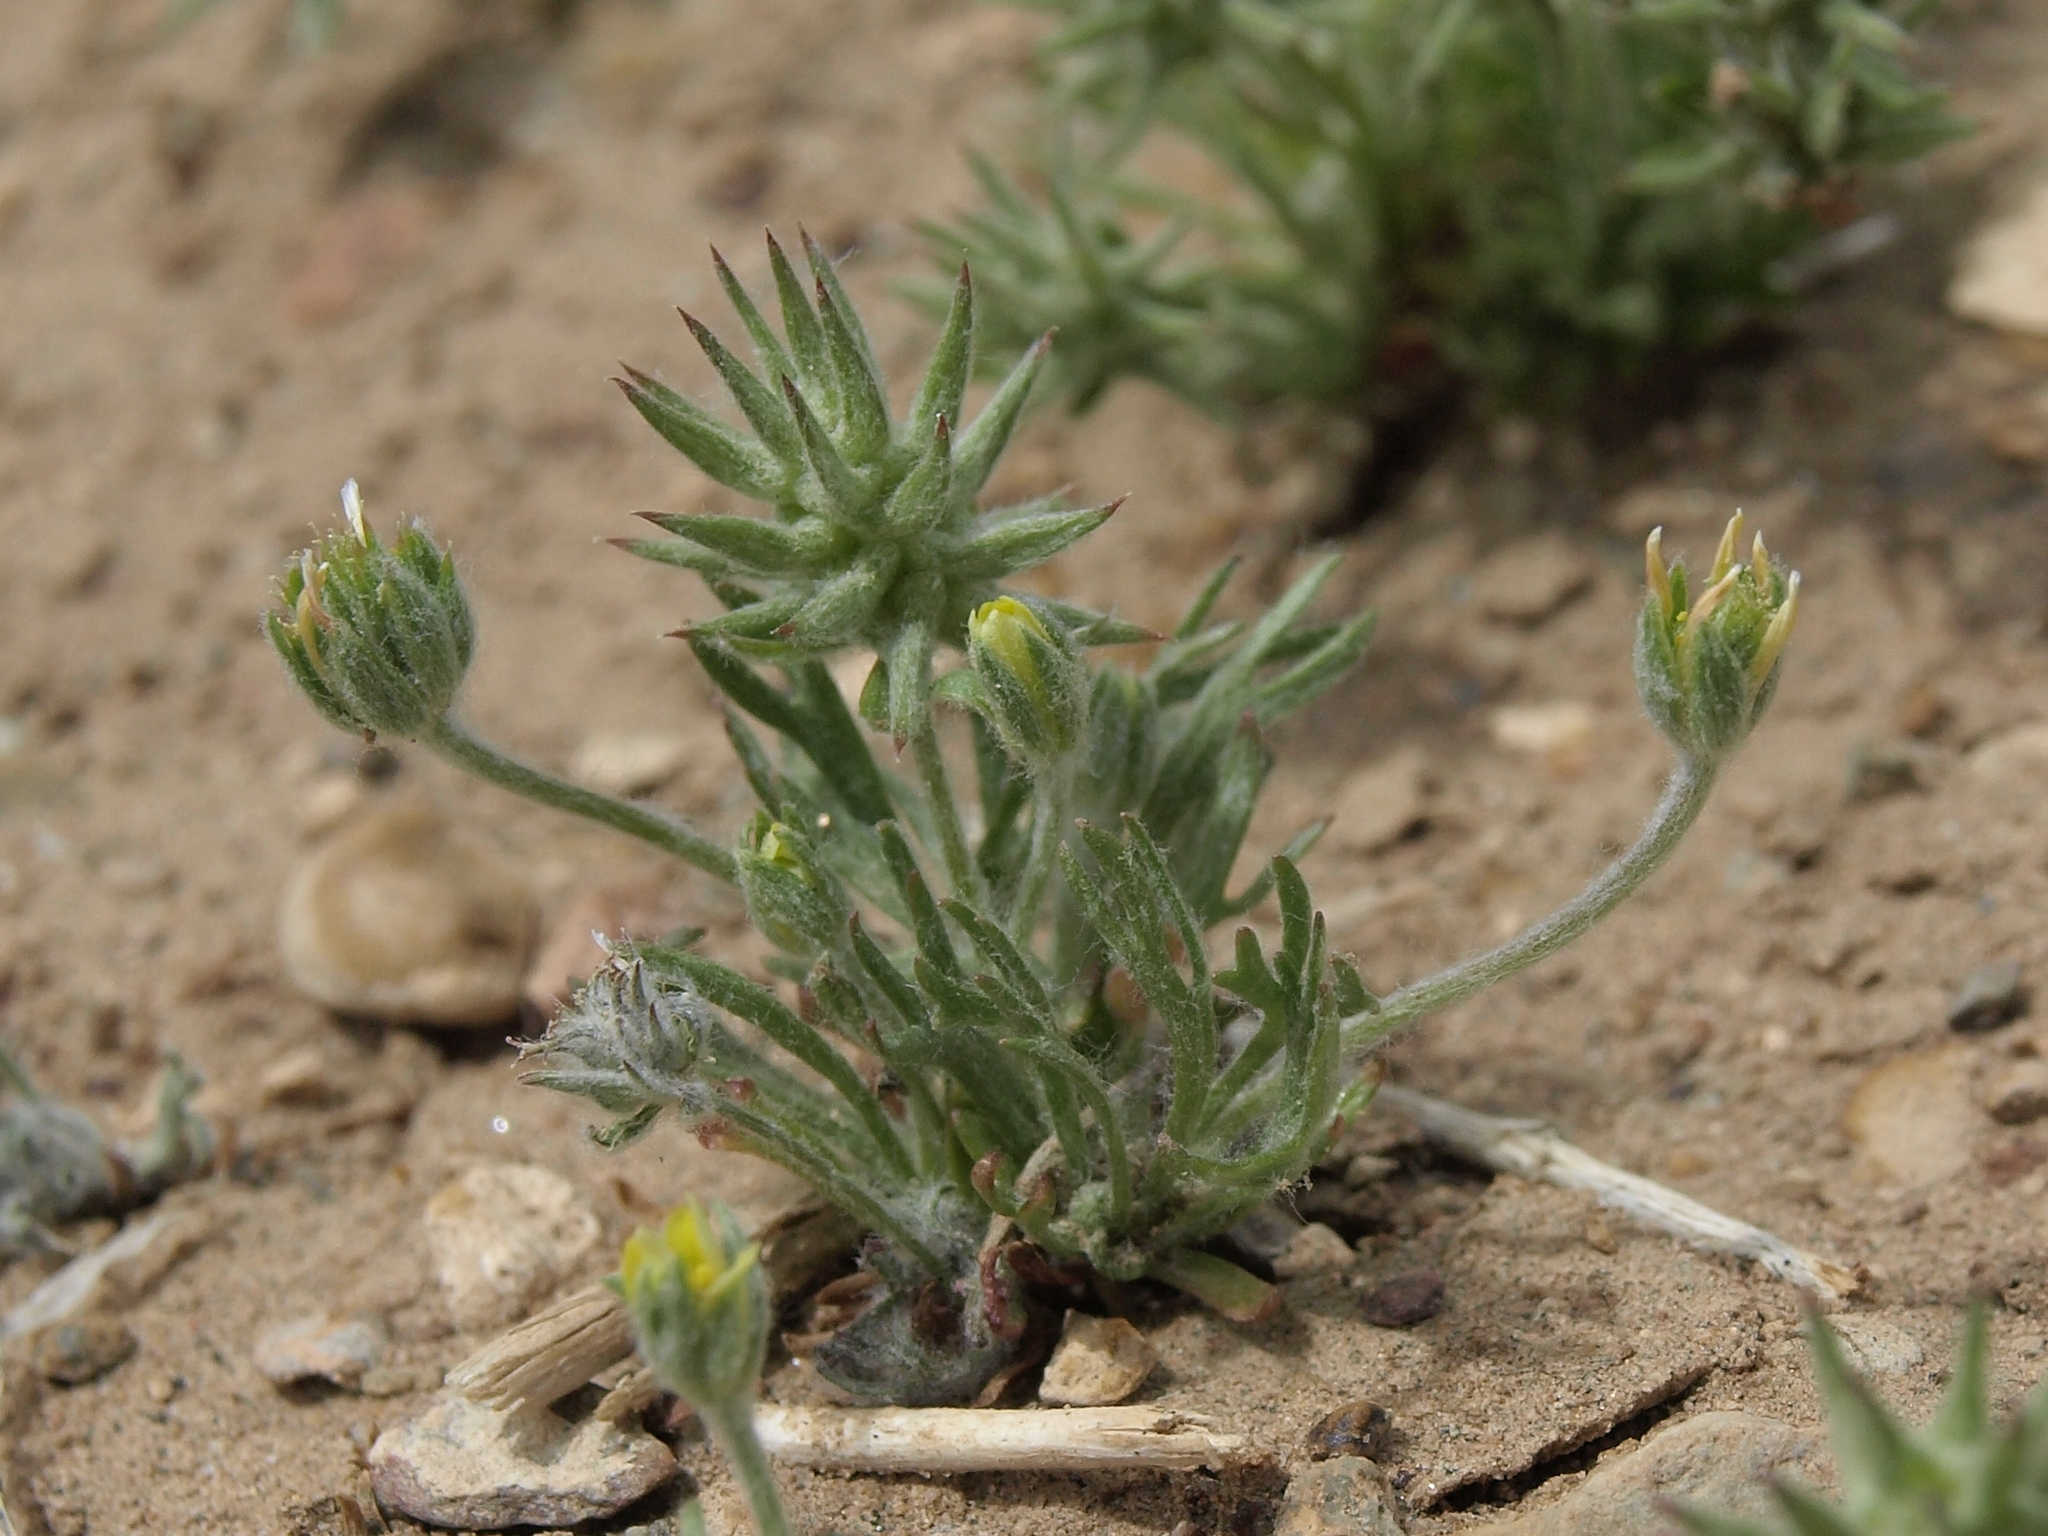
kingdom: Plantae
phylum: Tracheophyta
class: Magnoliopsida
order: Ranunculales
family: Ranunculaceae
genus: Ceratocephala
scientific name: Ceratocephala orthoceras
